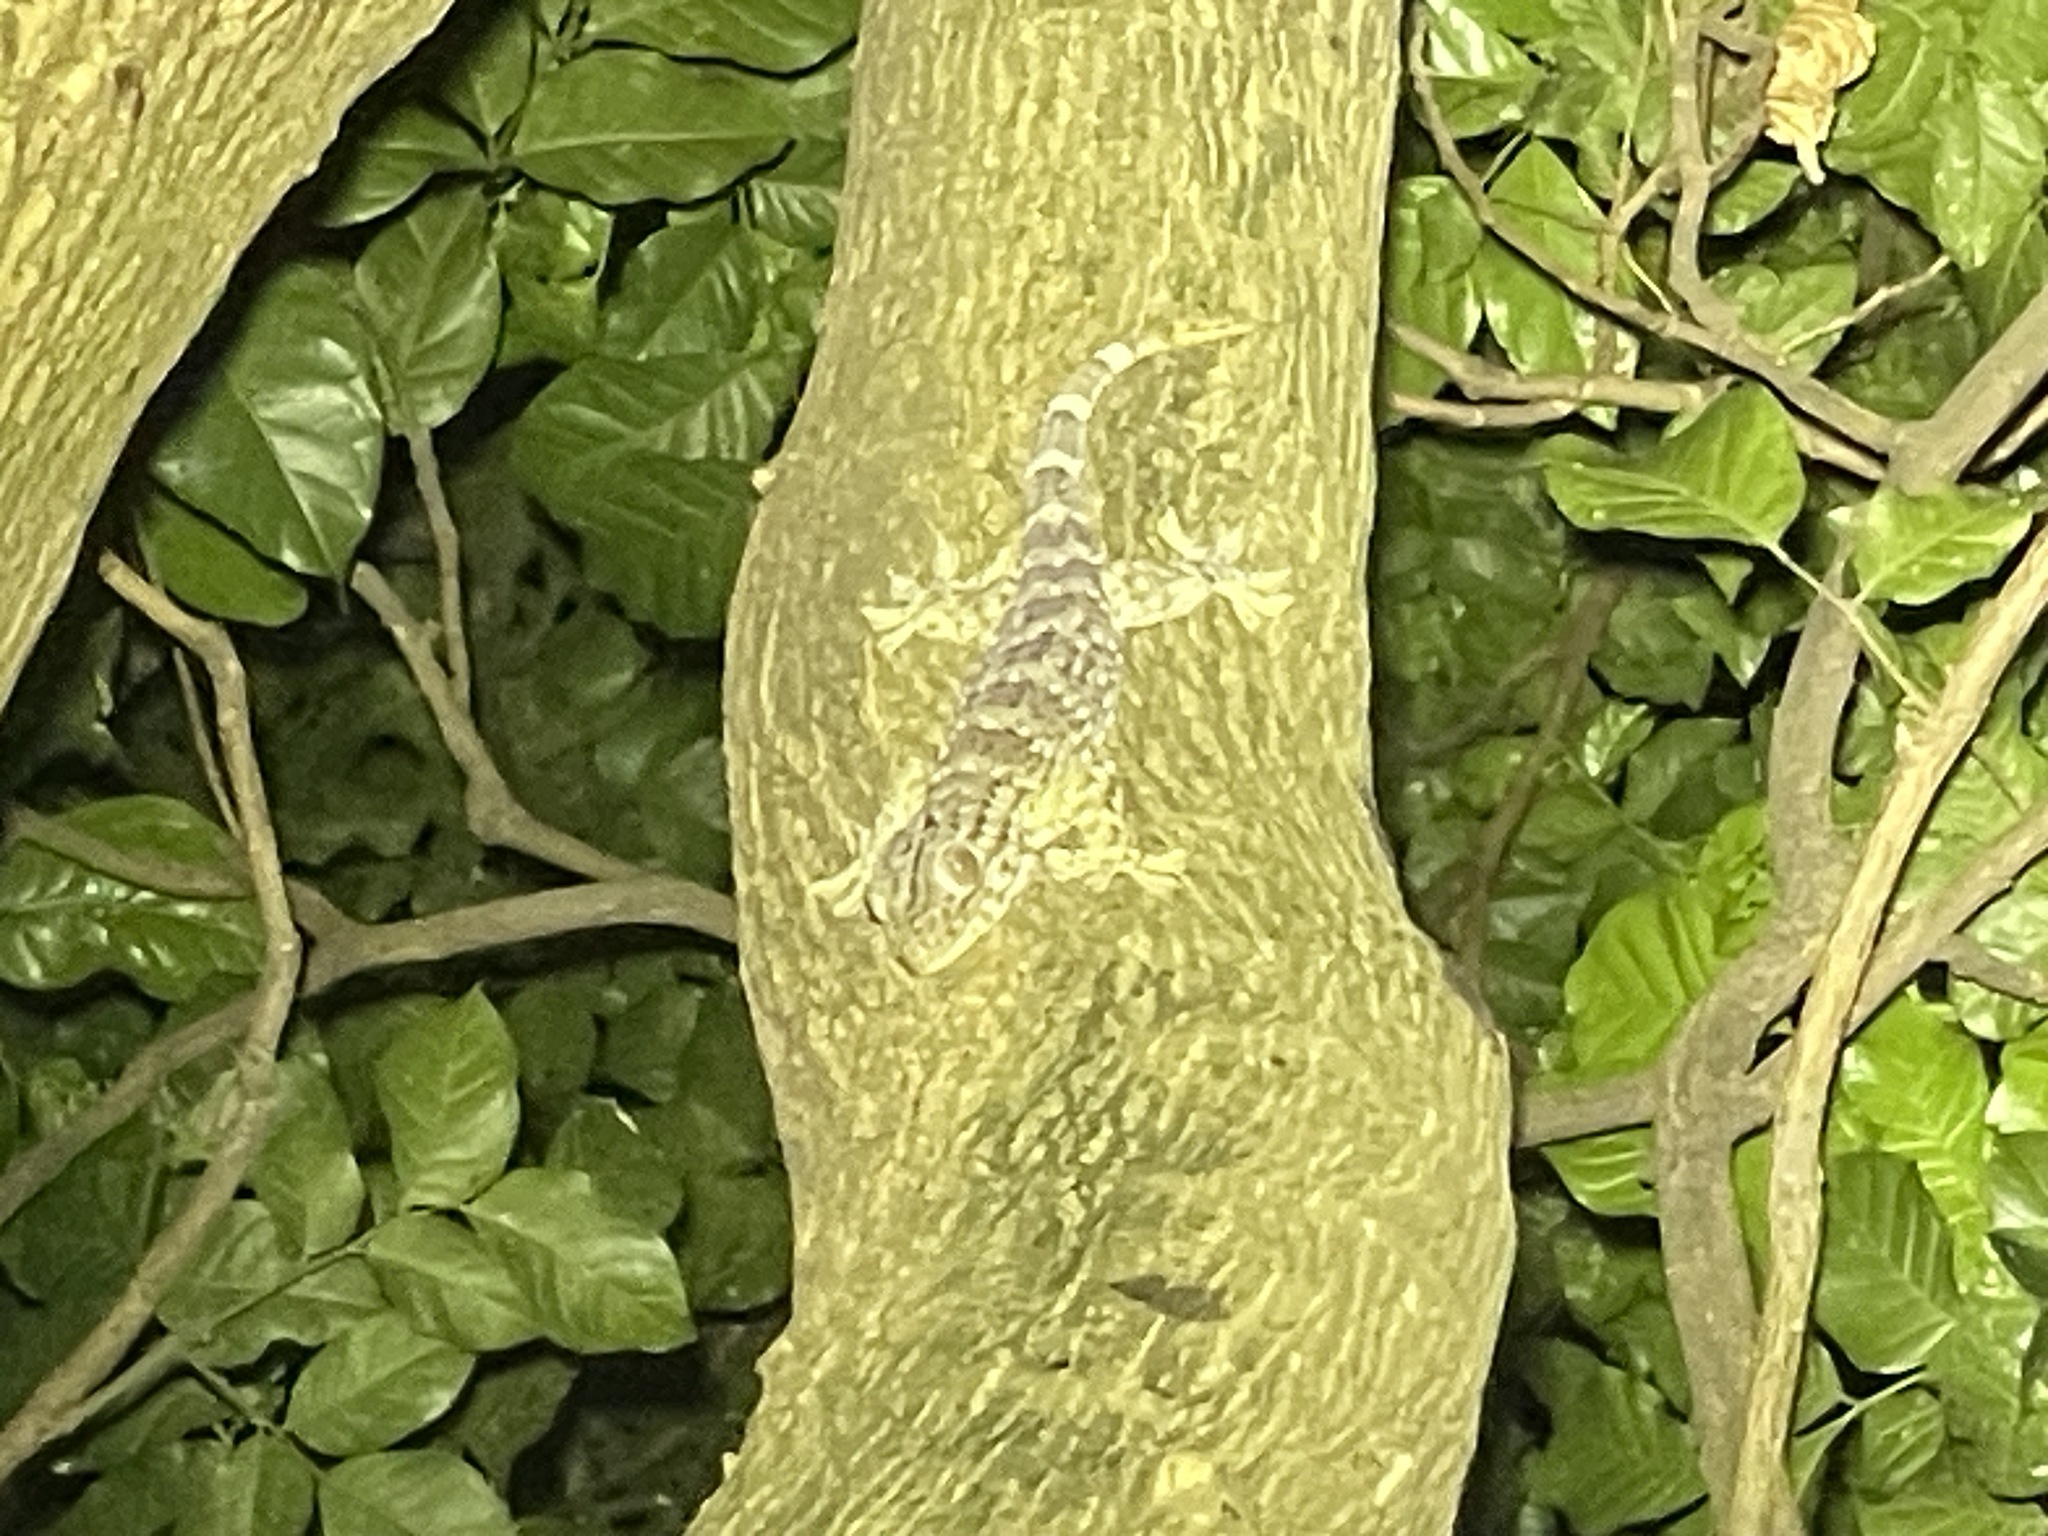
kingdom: Animalia
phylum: Chordata
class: Squamata
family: Gekkonidae
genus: Gekko
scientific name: Gekko reevesii
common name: Reeves’ tokay gecko
